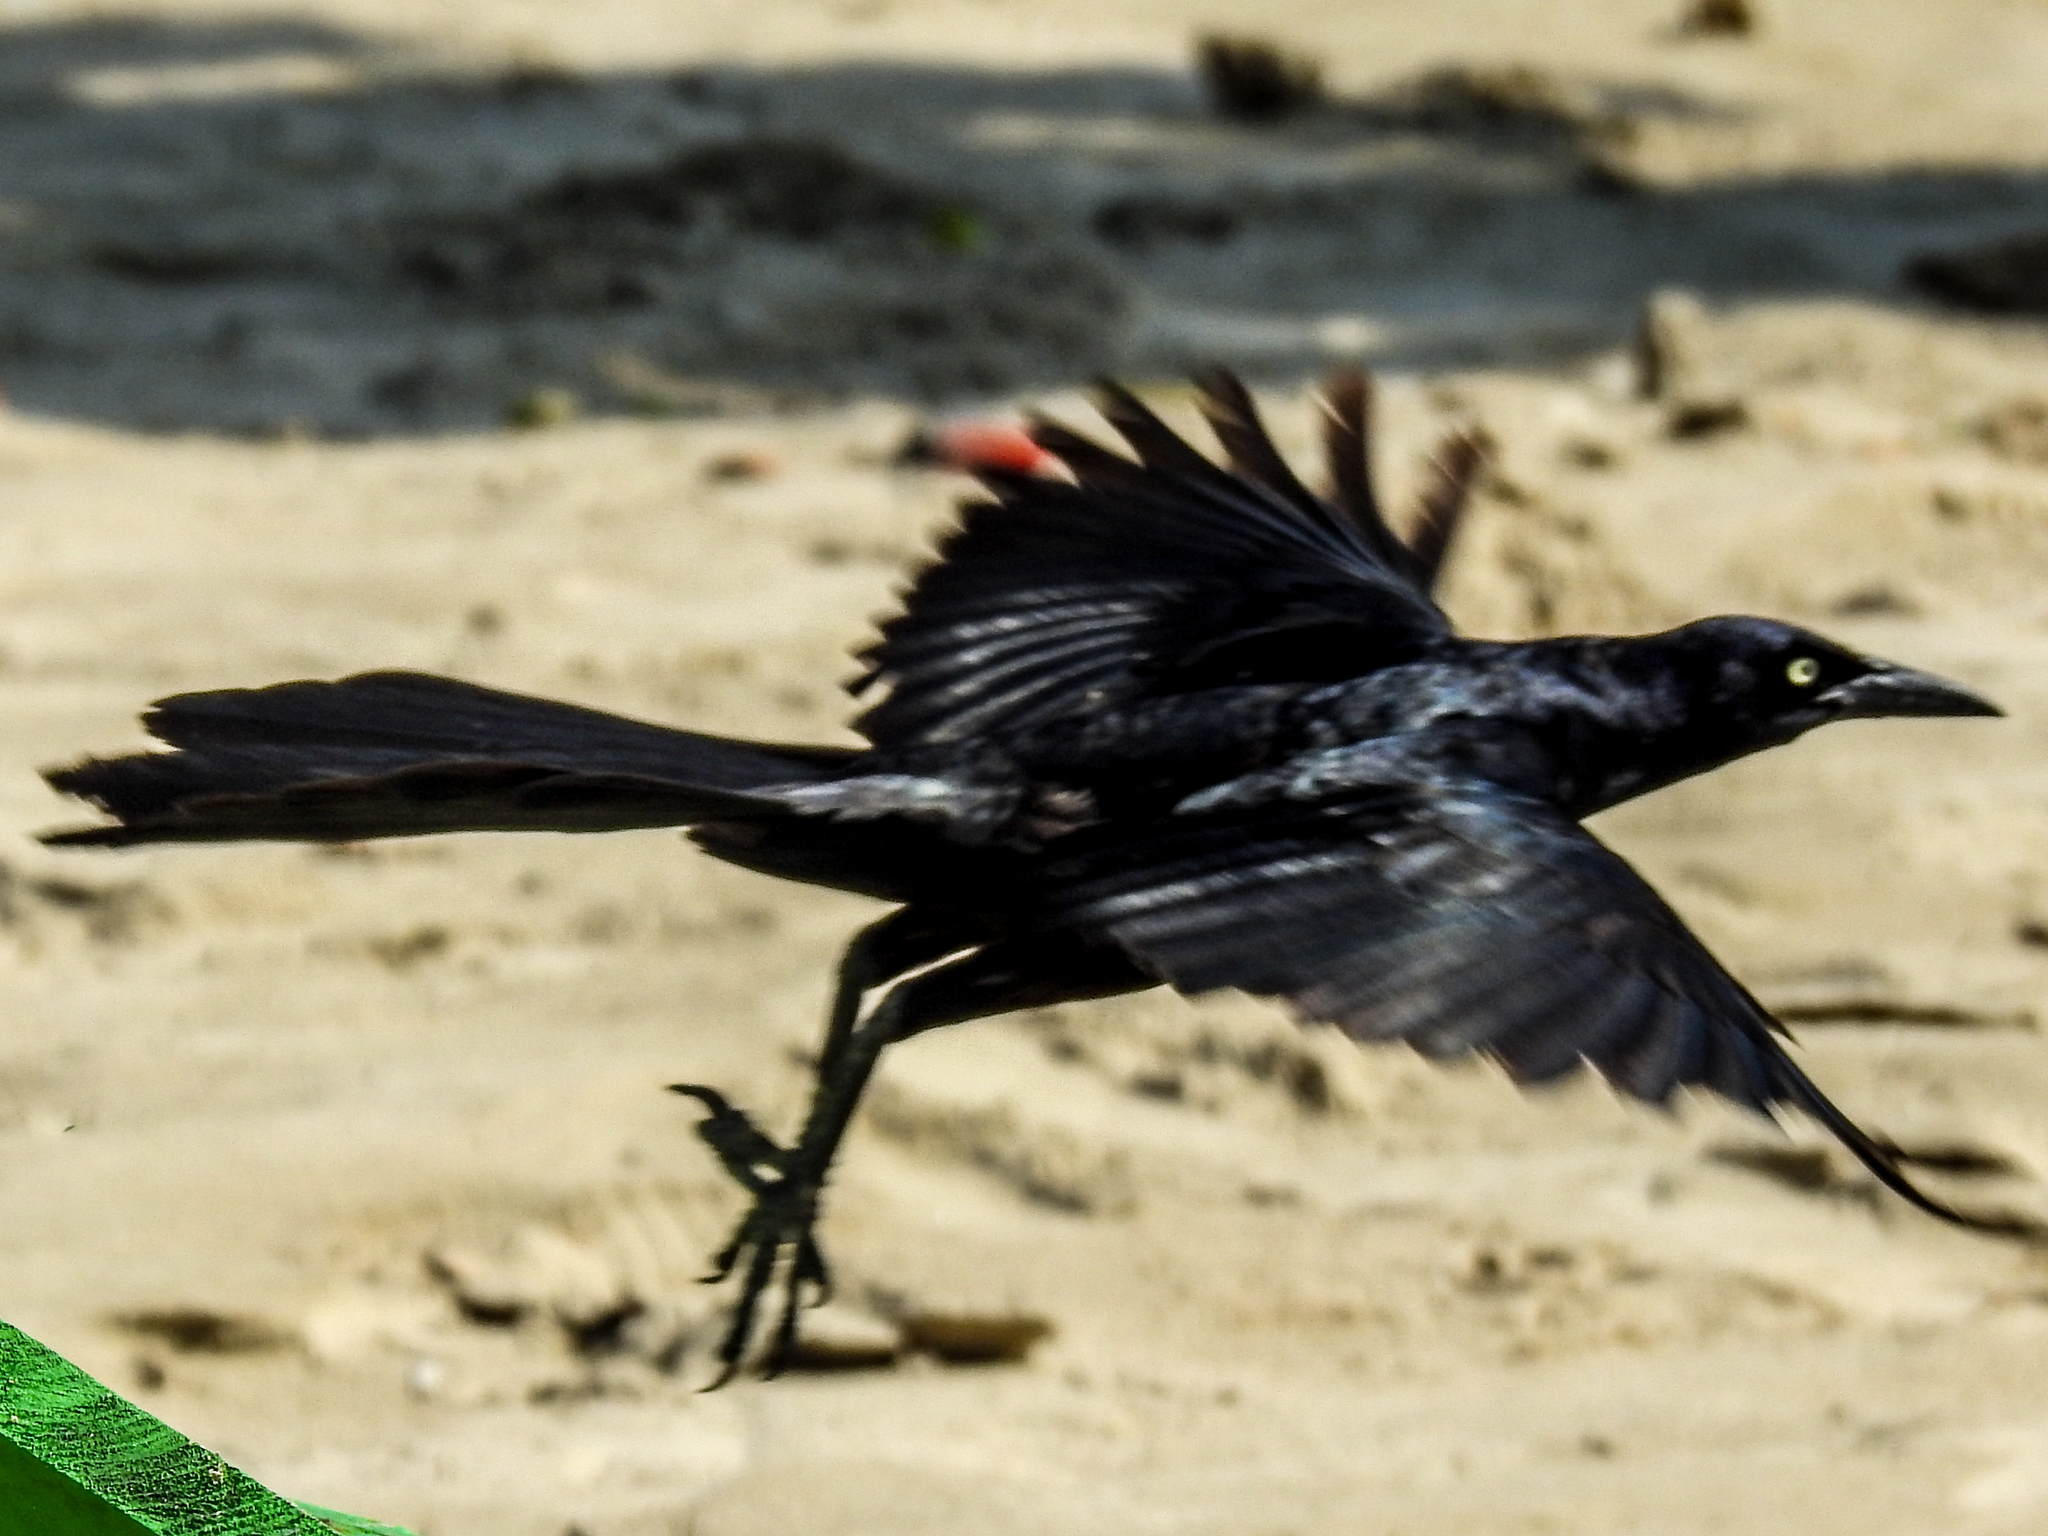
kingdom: Animalia
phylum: Chordata
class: Aves
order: Passeriformes
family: Icteridae
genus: Quiscalus
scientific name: Quiscalus mexicanus
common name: Great-tailed grackle
